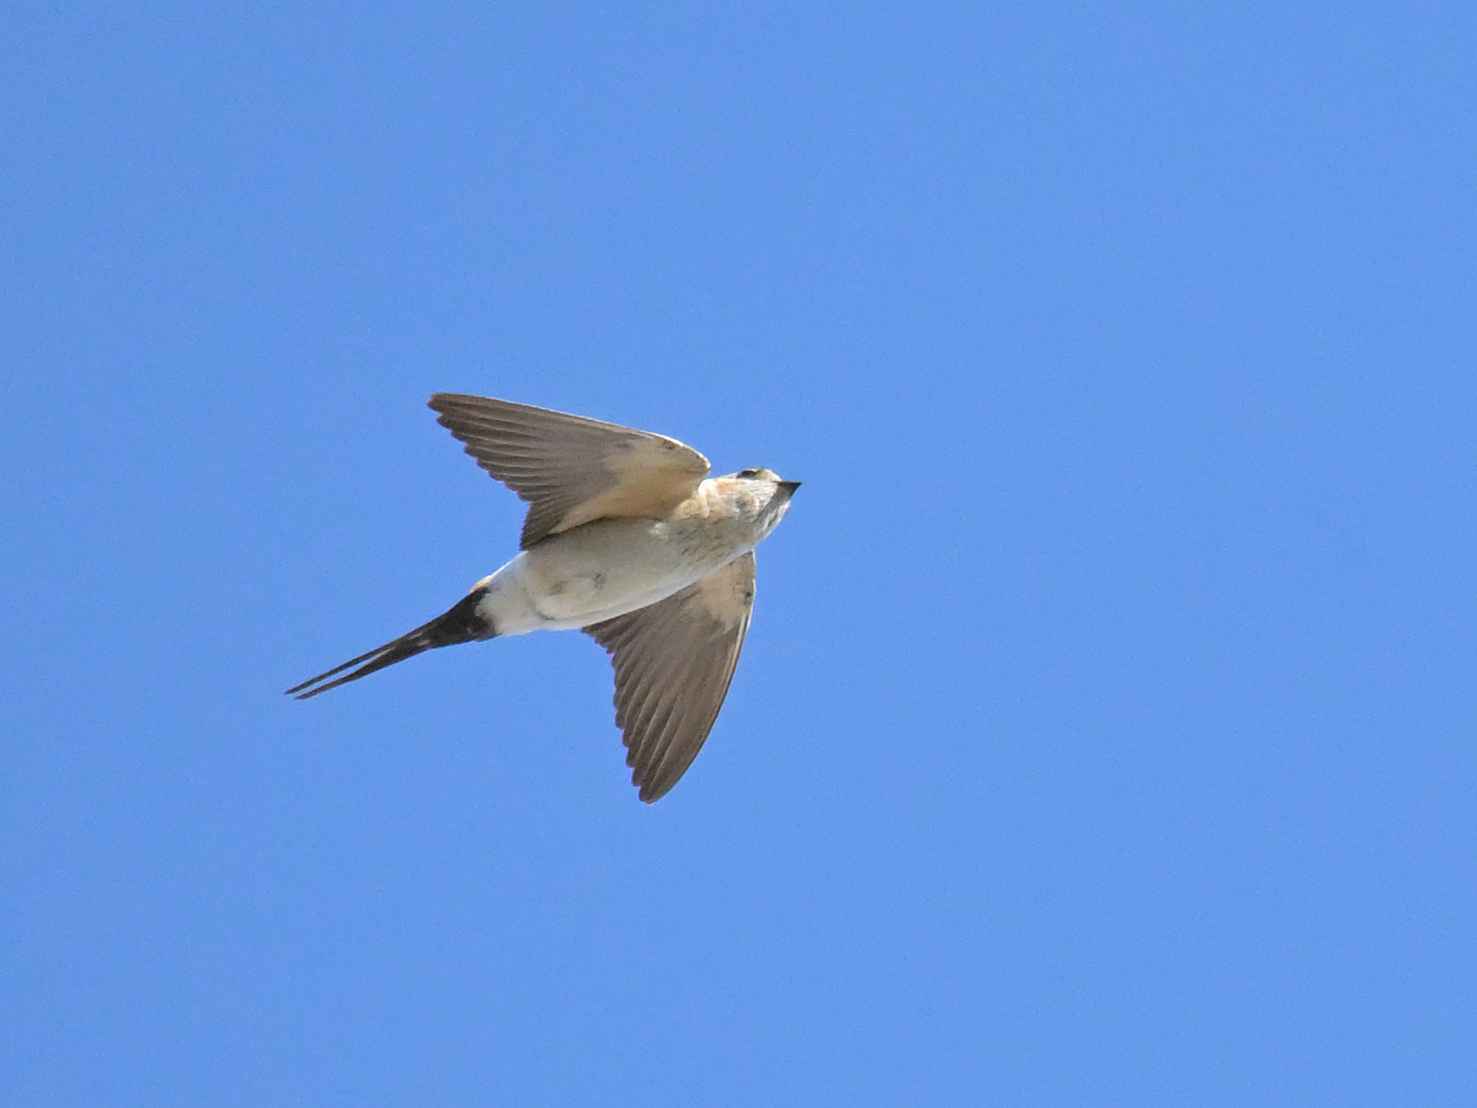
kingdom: Animalia
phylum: Chordata
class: Aves
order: Passeriformes
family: Hirundinidae
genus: Cecropis
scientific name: Cecropis daurica
